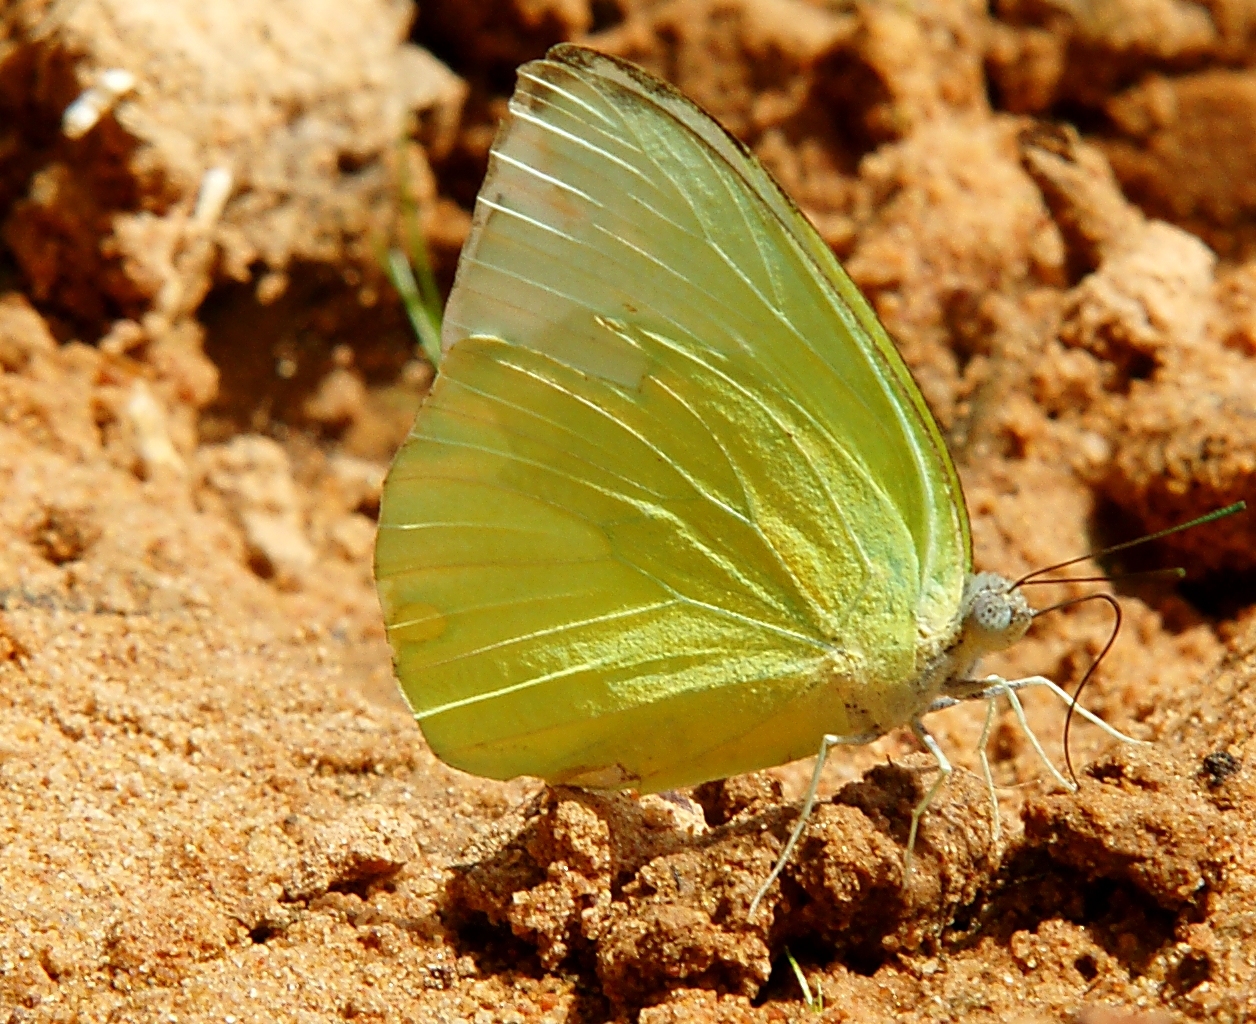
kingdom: Animalia
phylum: Arthropoda
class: Insecta
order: Lepidoptera
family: Pieridae
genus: Catopsilia
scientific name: Catopsilia pomona
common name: Common emigrant
